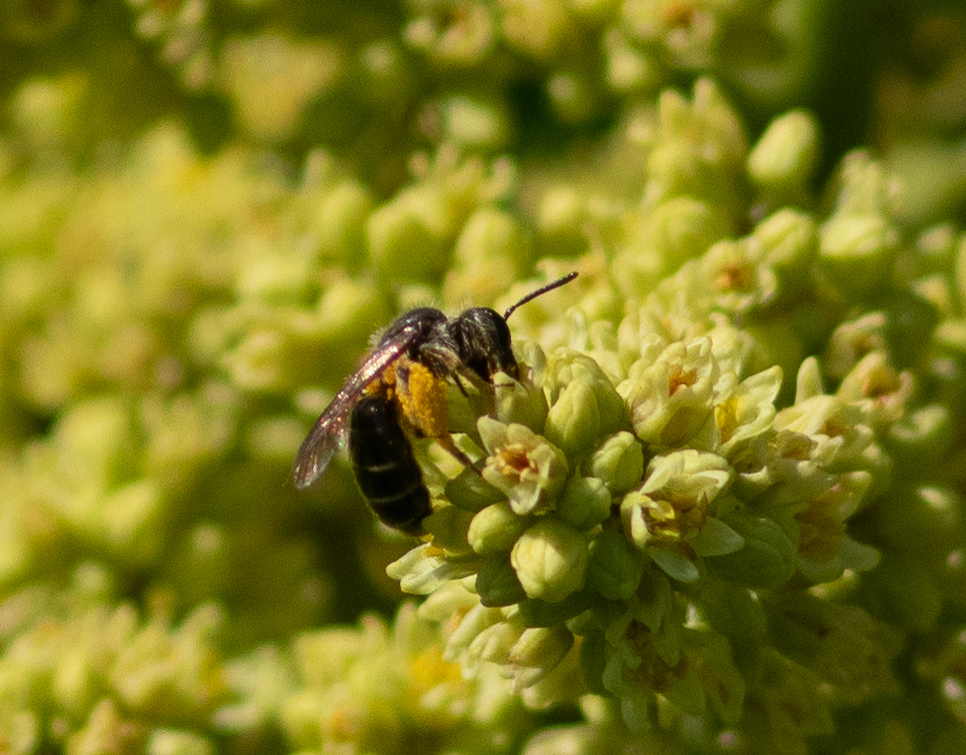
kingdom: Animalia
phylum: Arthropoda
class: Insecta
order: Hymenoptera
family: Andrenidae
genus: Andrena
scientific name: Andrena
